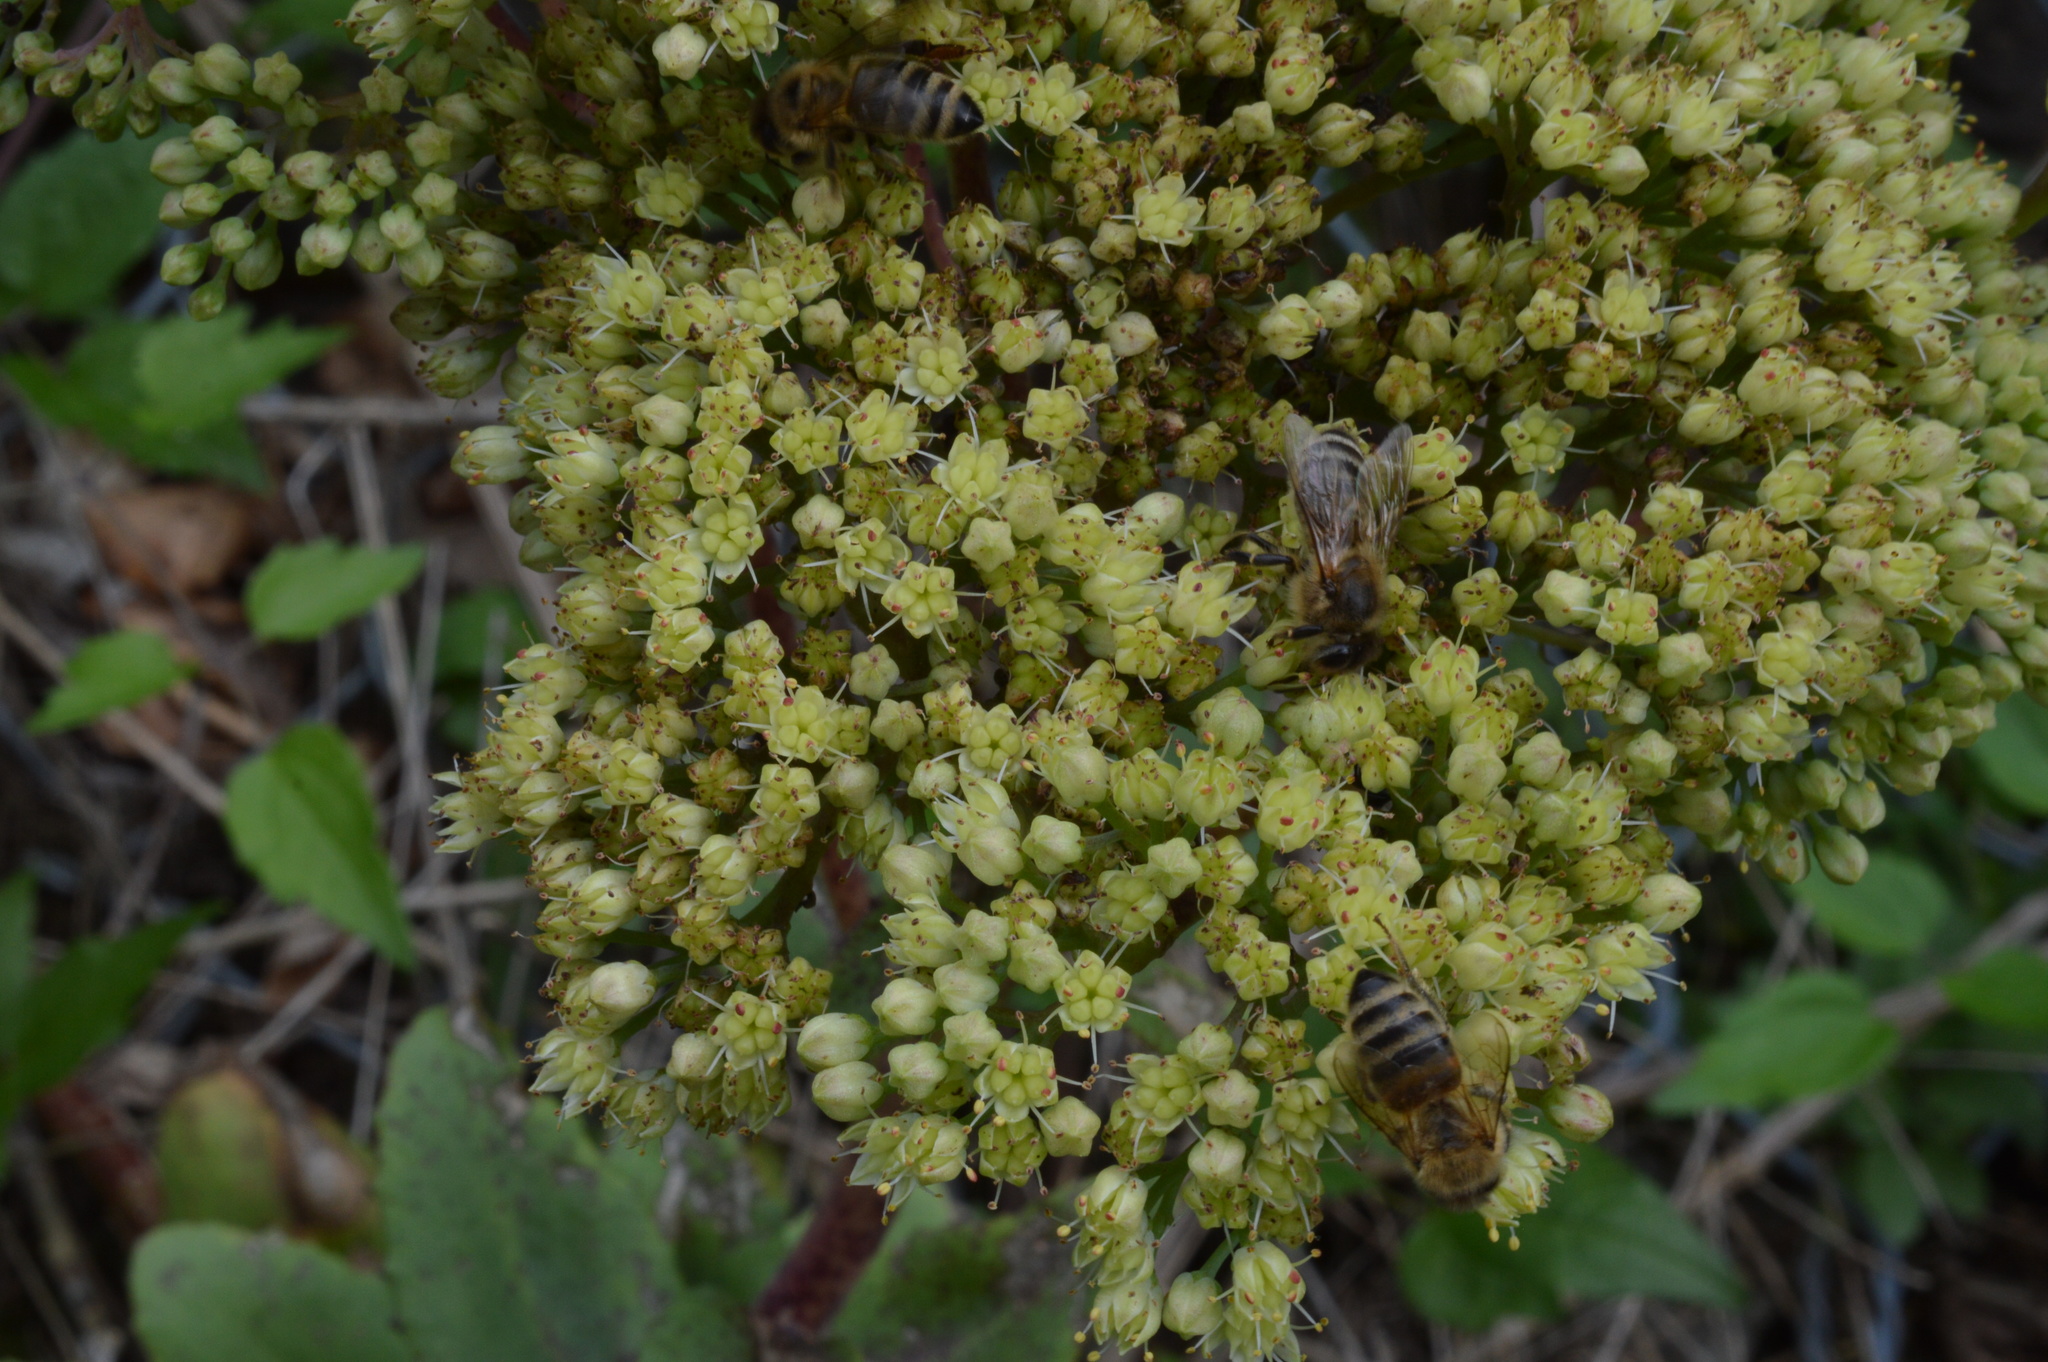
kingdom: Plantae
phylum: Tracheophyta
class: Magnoliopsida
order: Saxifragales
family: Crassulaceae
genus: Hylotelephium
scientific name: Hylotelephium maximum
